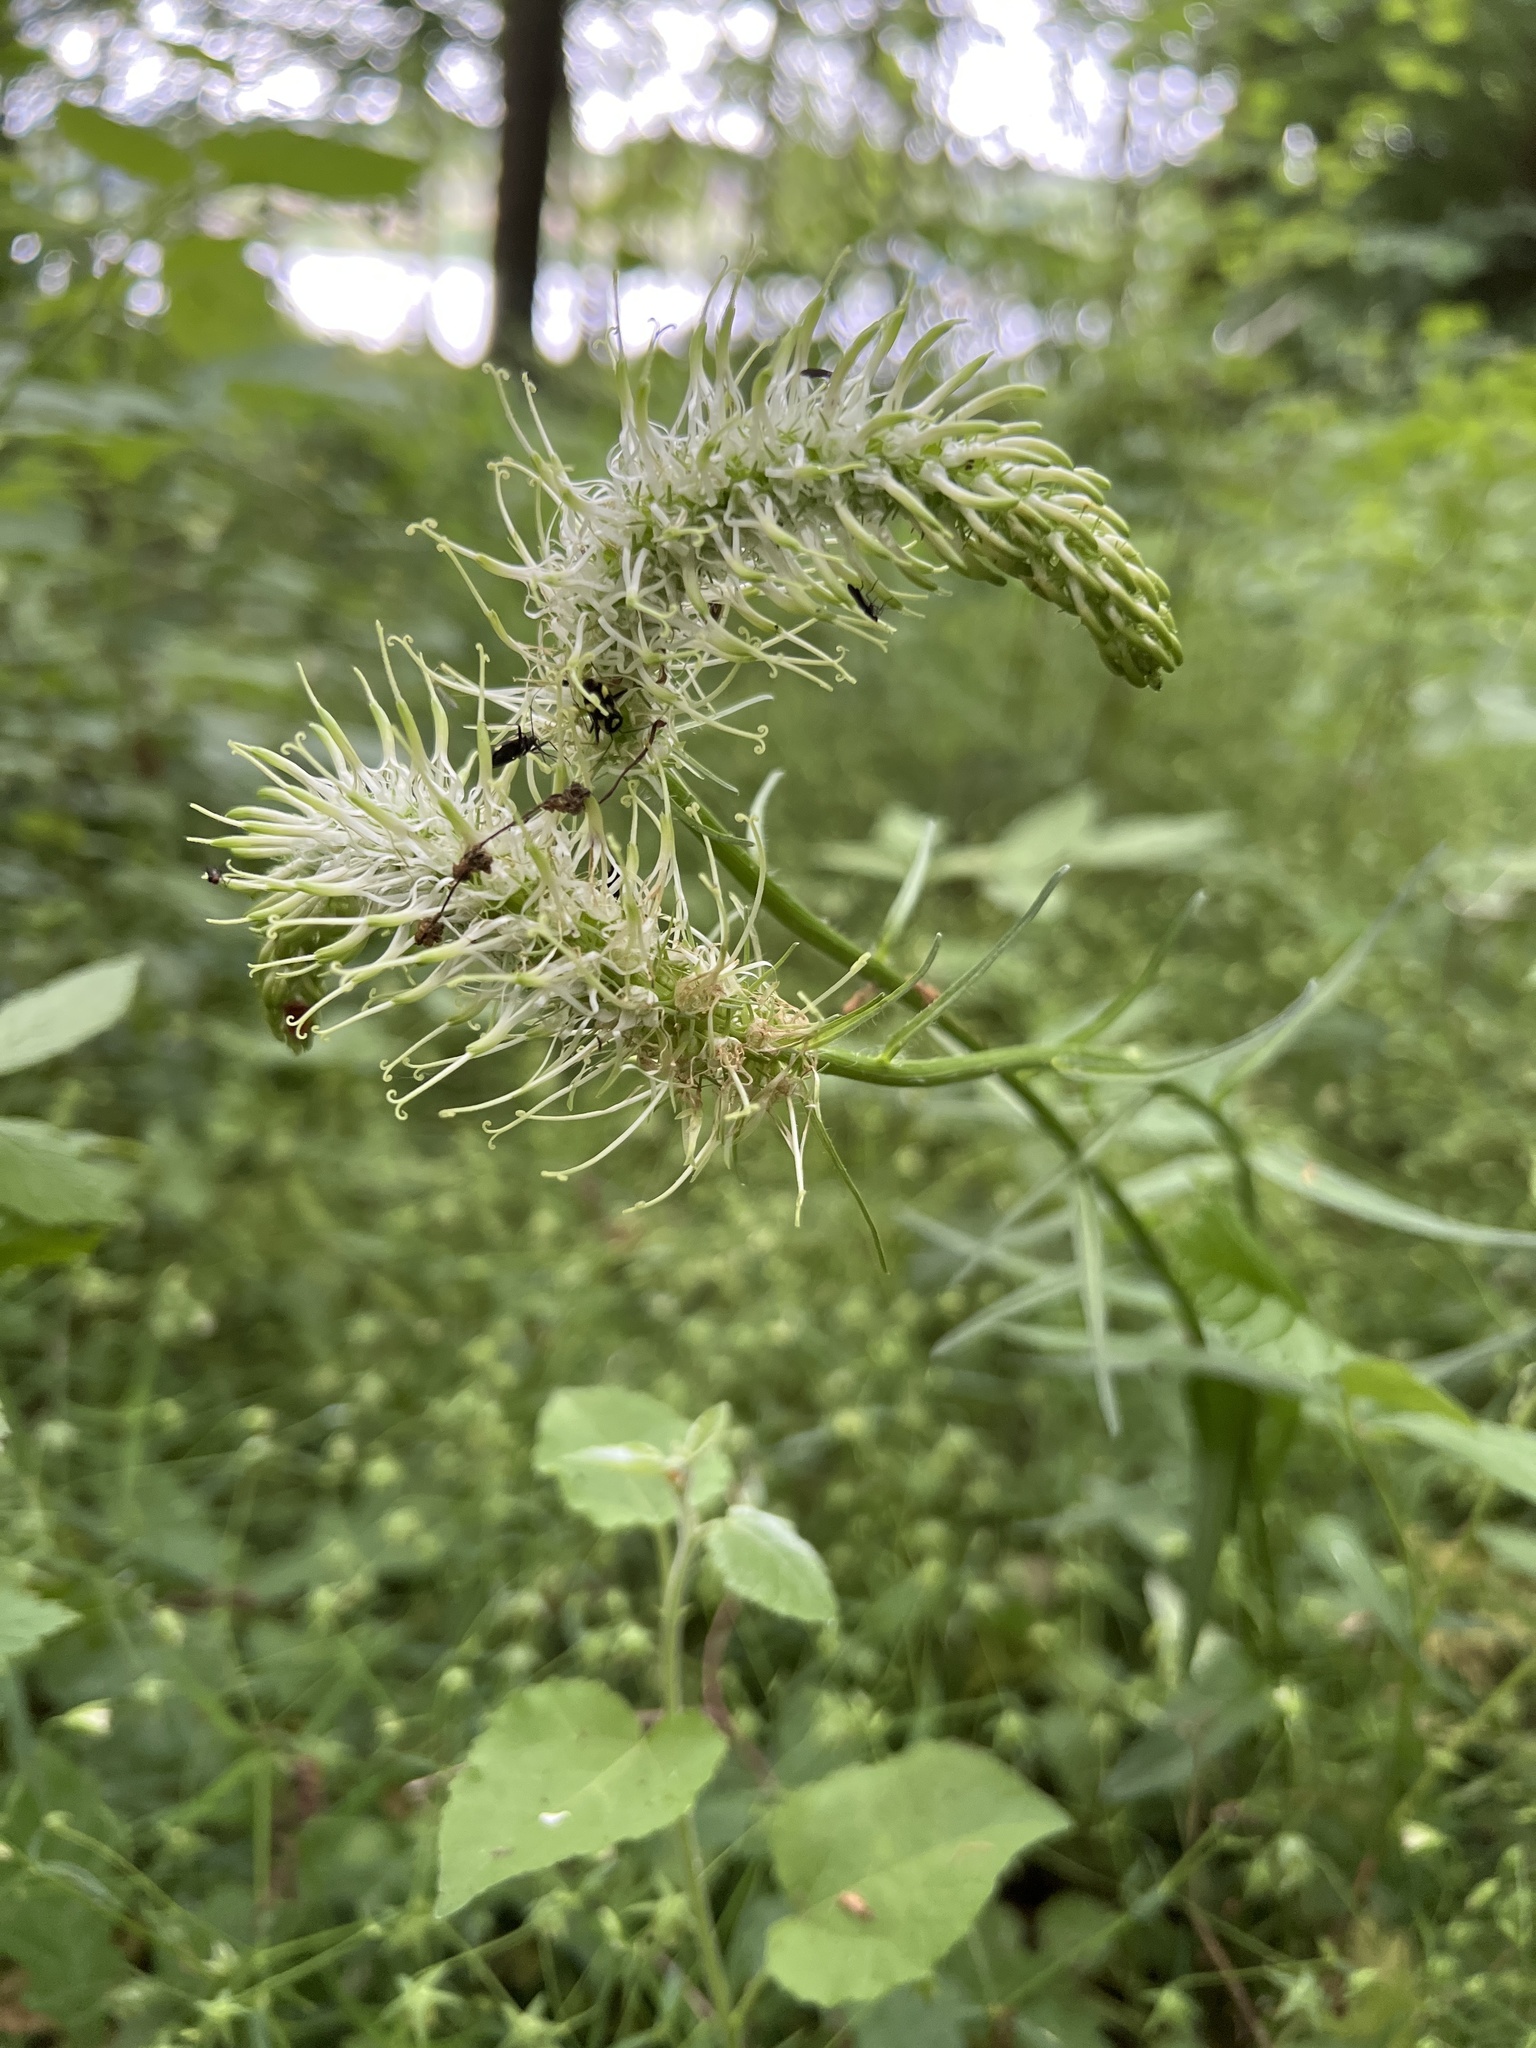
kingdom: Plantae
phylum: Tracheophyta
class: Magnoliopsida
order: Asterales
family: Campanulaceae
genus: Phyteuma
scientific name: Phyteuma spicatum
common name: Spiked rampion
